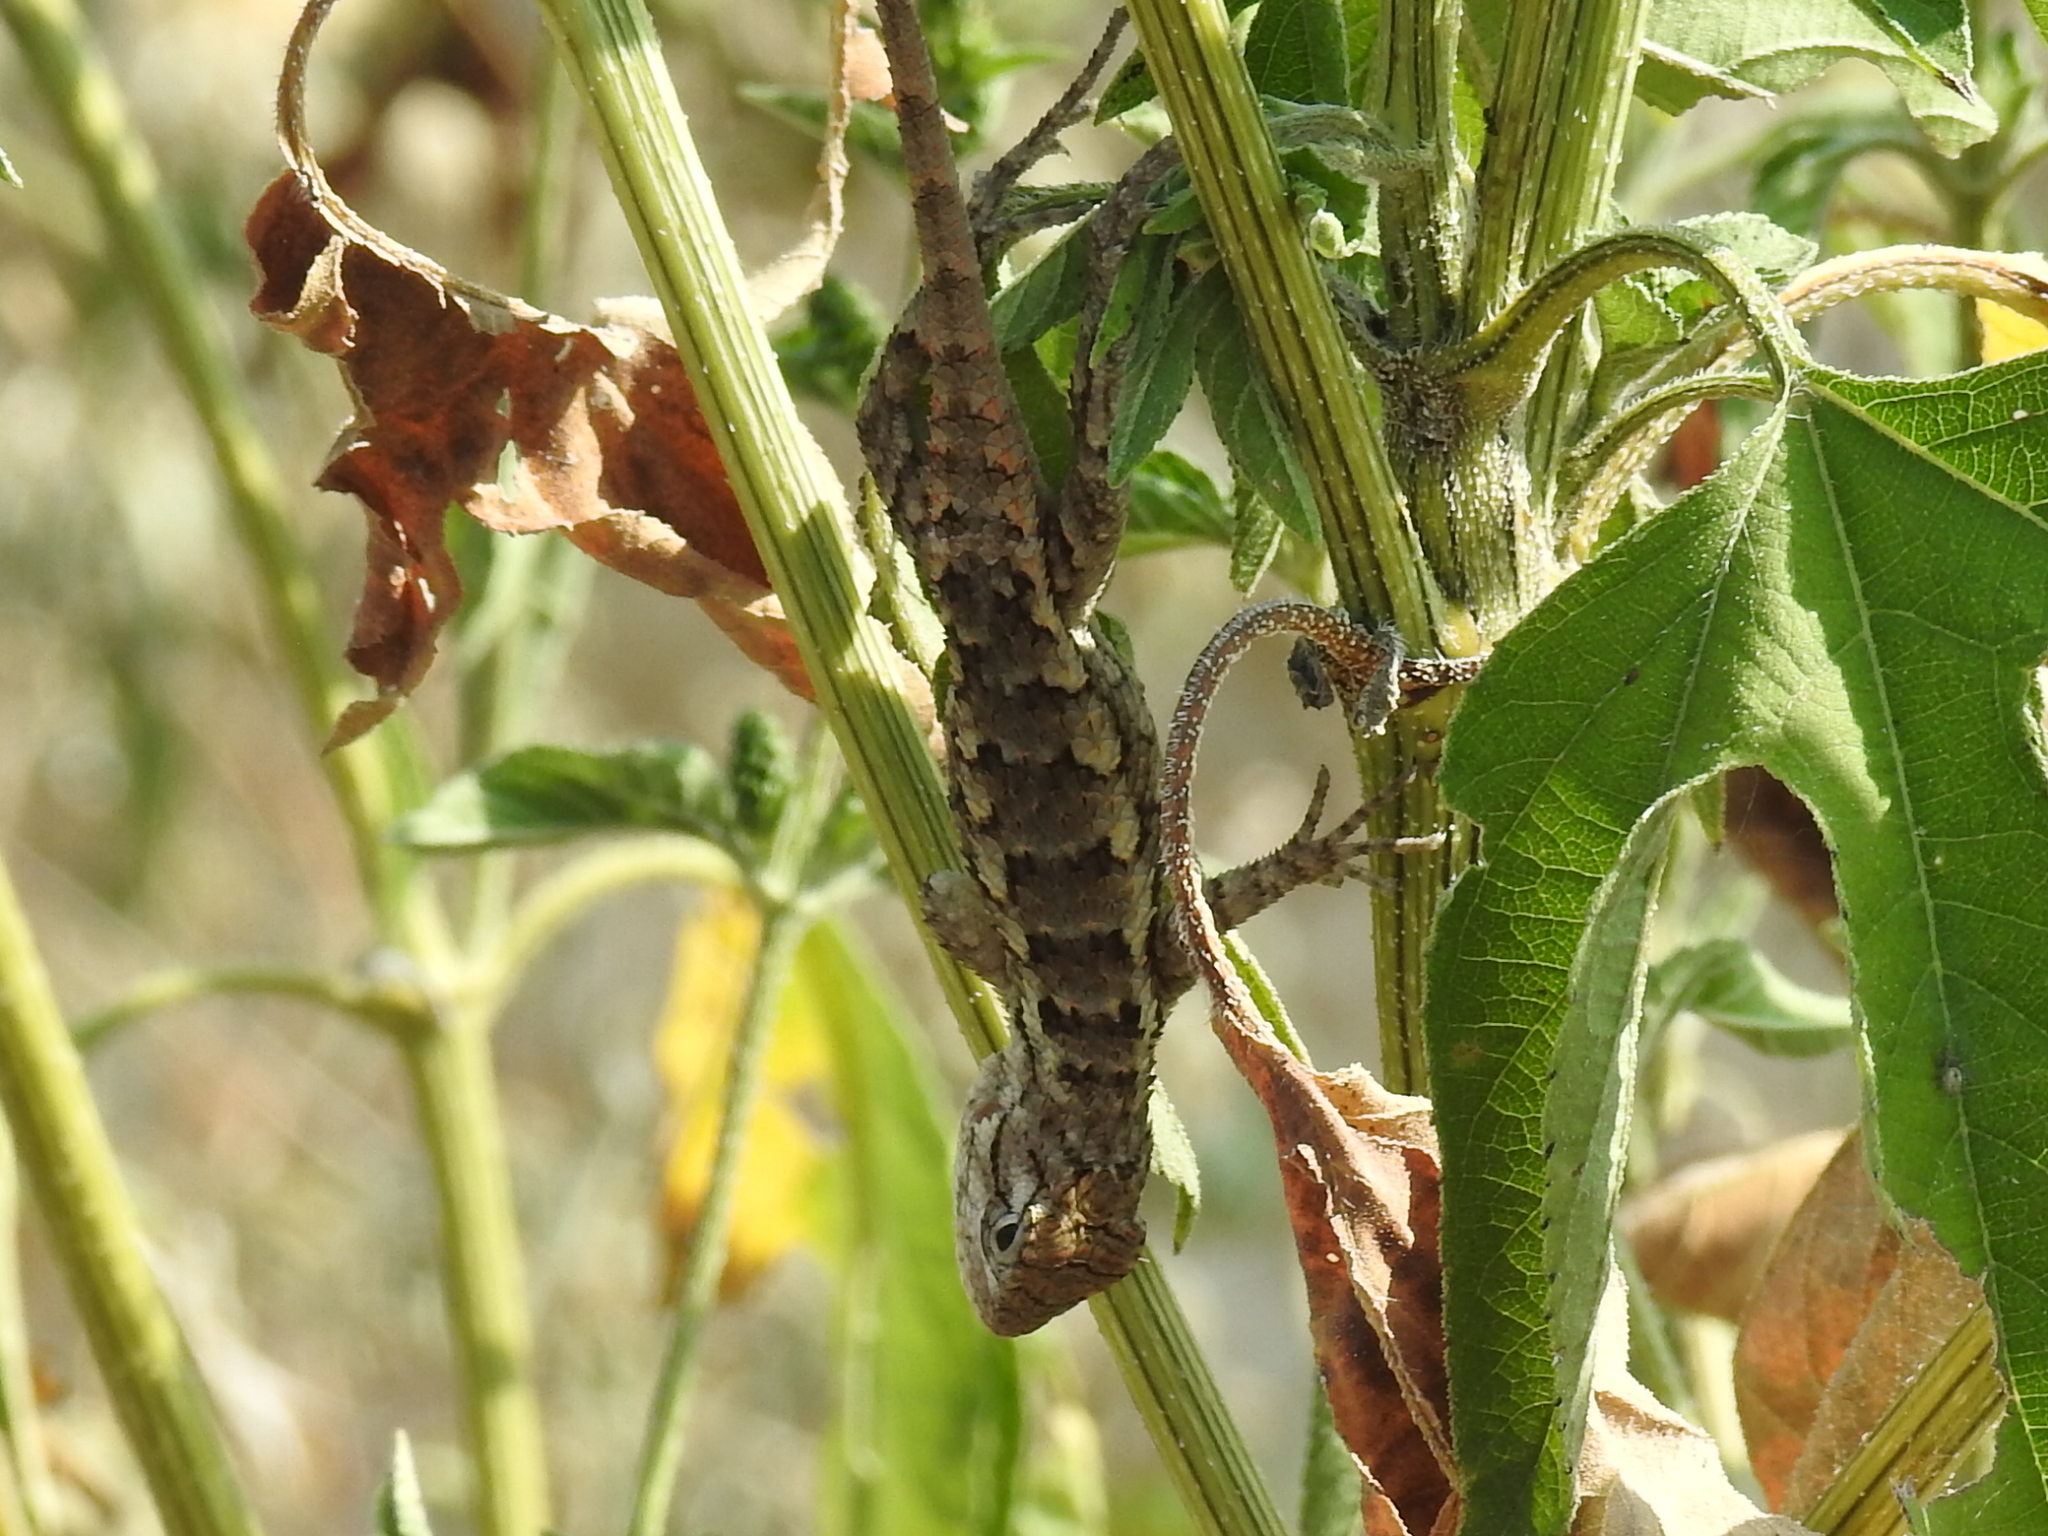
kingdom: Animalia
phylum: Chordata
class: Squamata
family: Phrynosomatidae
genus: Sceloporus
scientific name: Sceloporus olivaceus
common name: Texas spiny lizard
